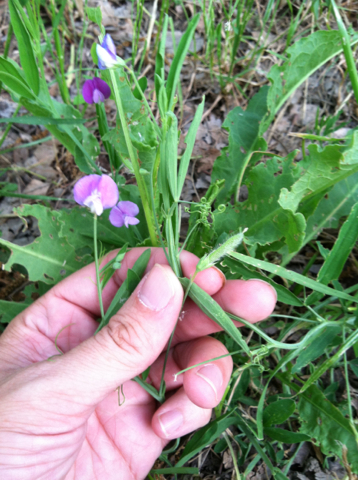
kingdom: Plantae
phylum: Tracheophyta
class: Magnoliopsida
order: Fabales
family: Fabaceae
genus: Lathyrus
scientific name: Lathyrus hirsutus
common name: Hairy vetchling
